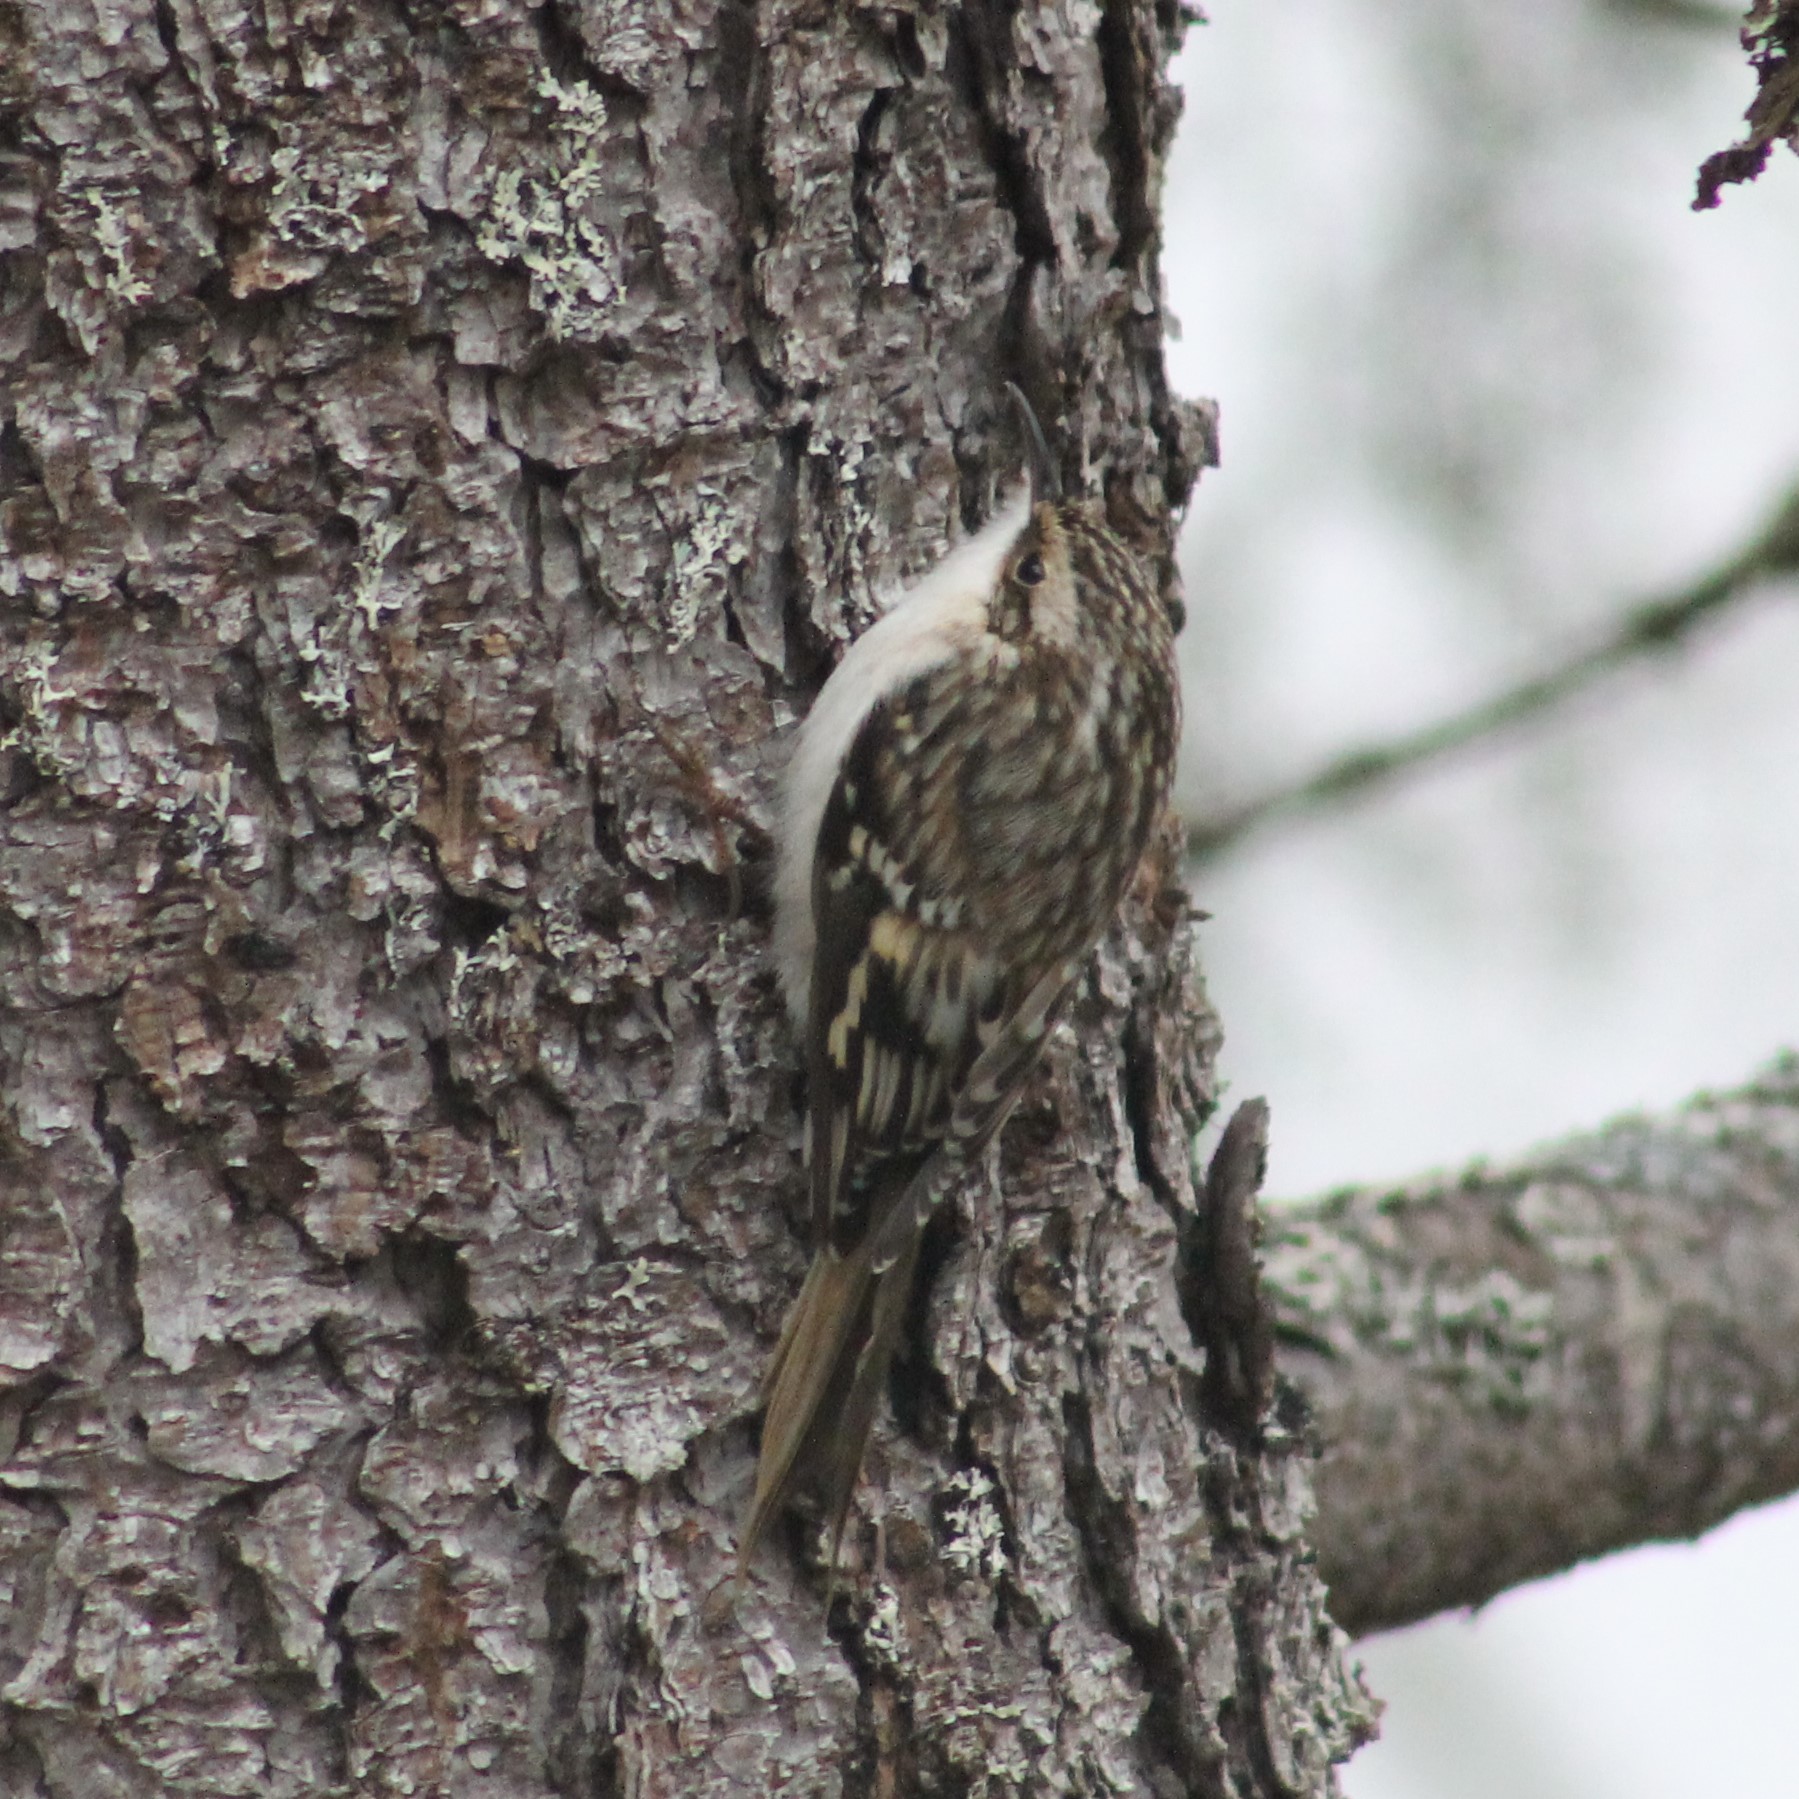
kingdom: Animalia
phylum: Chordata
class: Aves
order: Passeriformes
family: Certhiidae
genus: Certhia
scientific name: Certhia americana
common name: Brown creeper
